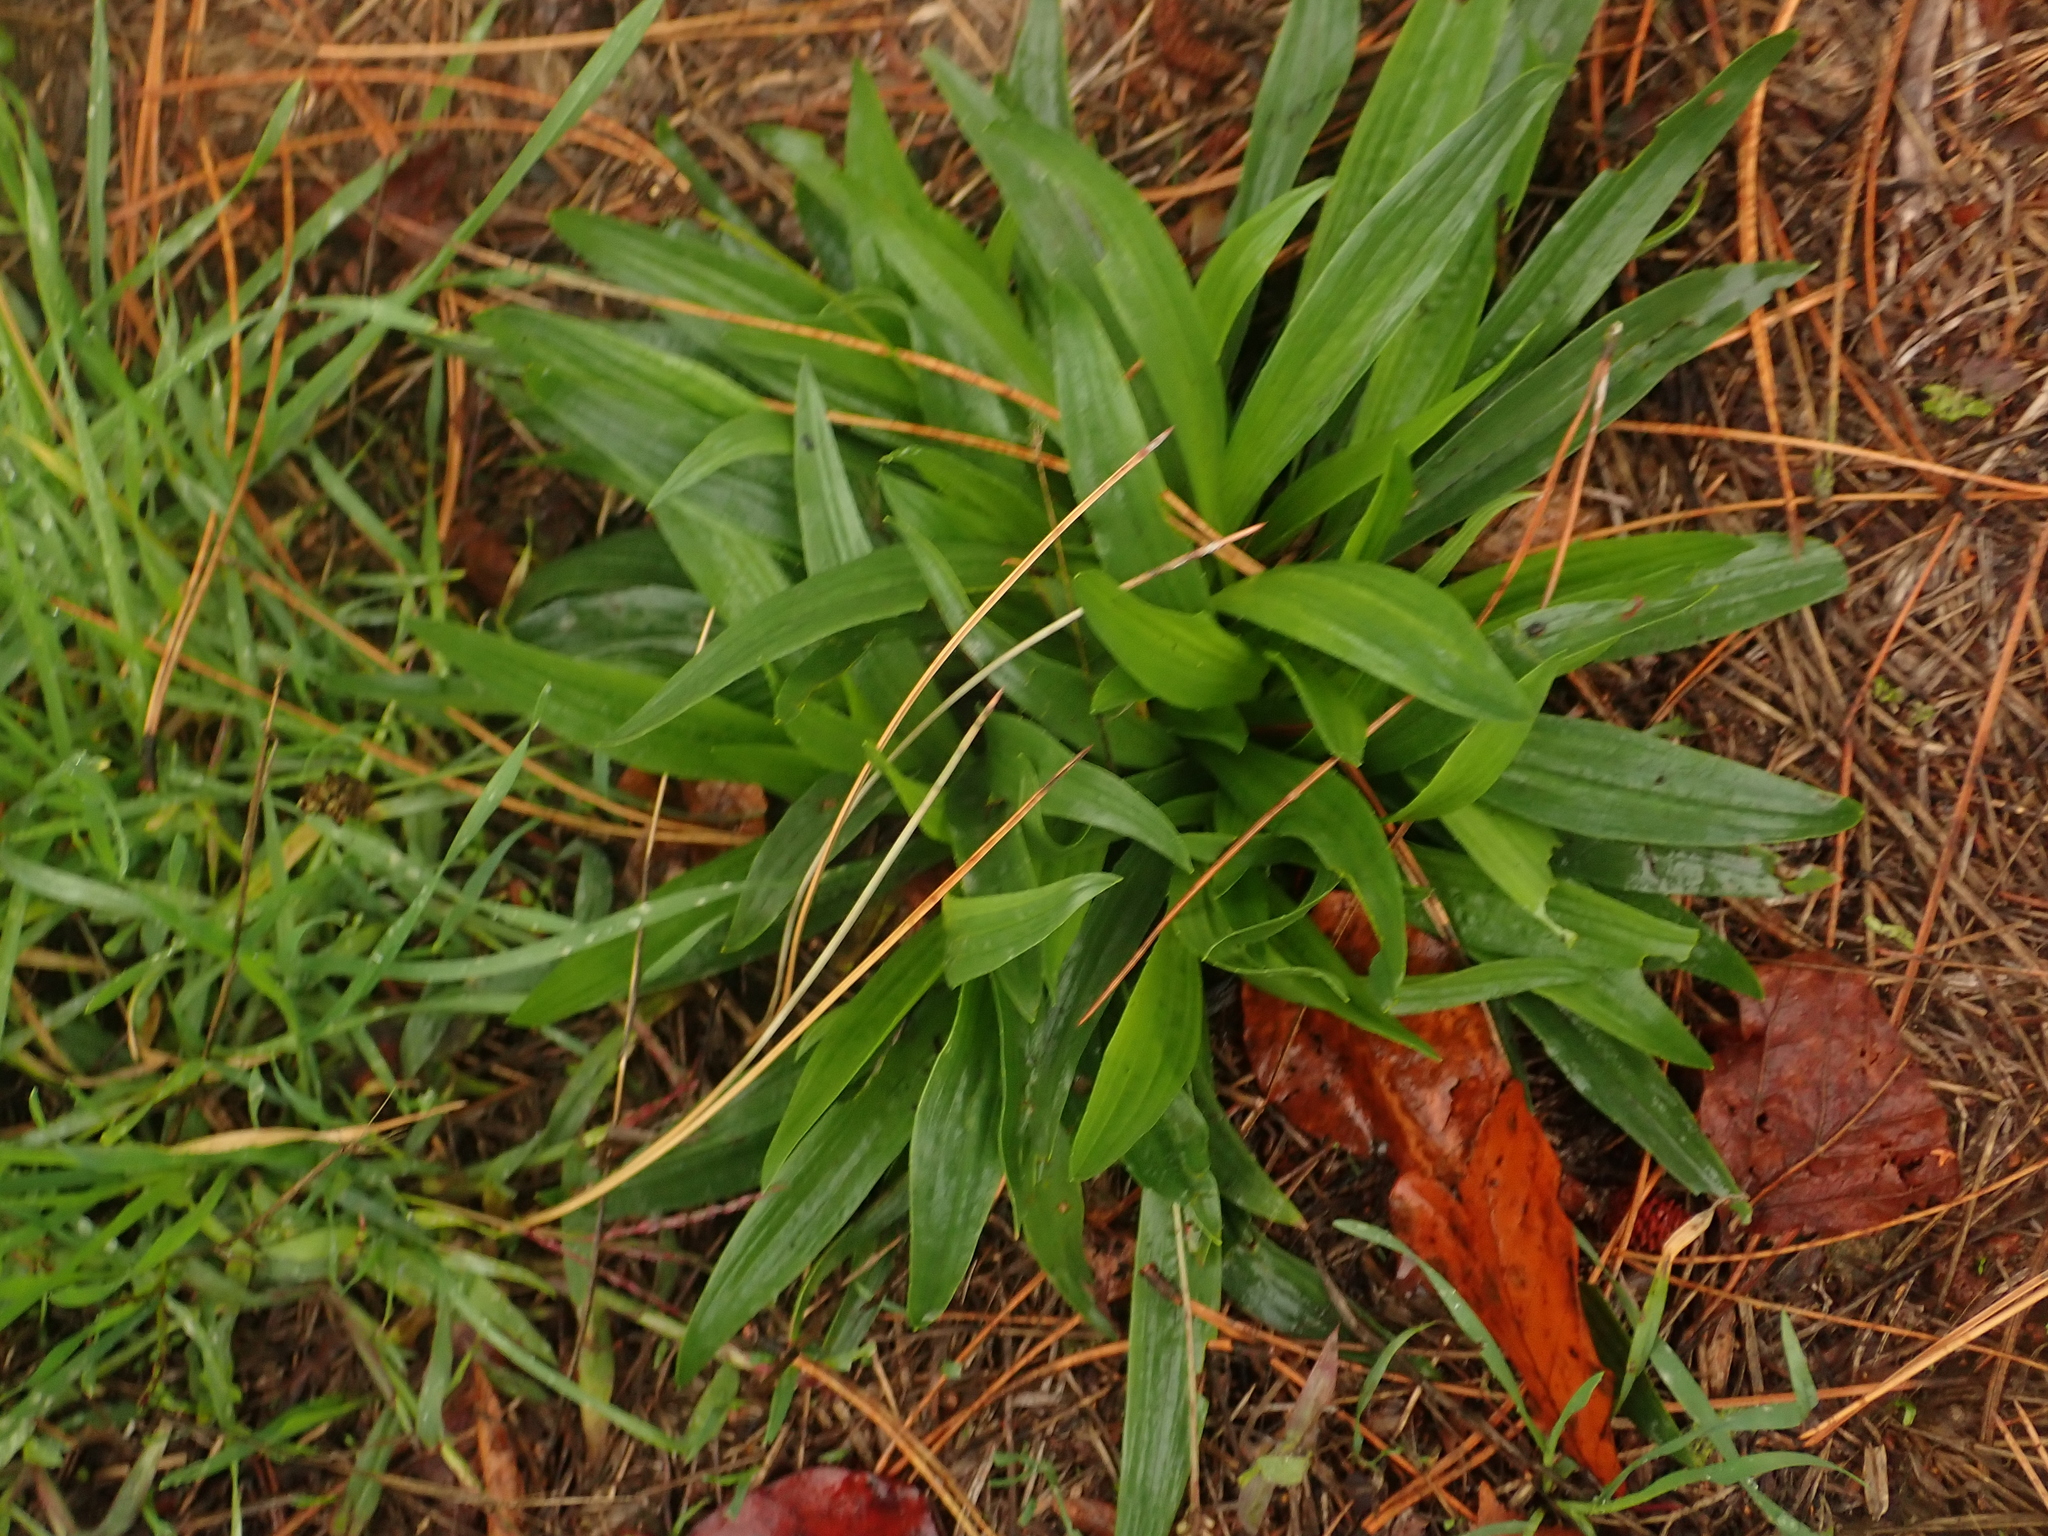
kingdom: Plantae
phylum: Tracheophyta
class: Magnoliopsida
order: Lamiales
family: Plantaginaceae
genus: Plantago
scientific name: Plantago lanceolata
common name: Ribwort plantain
